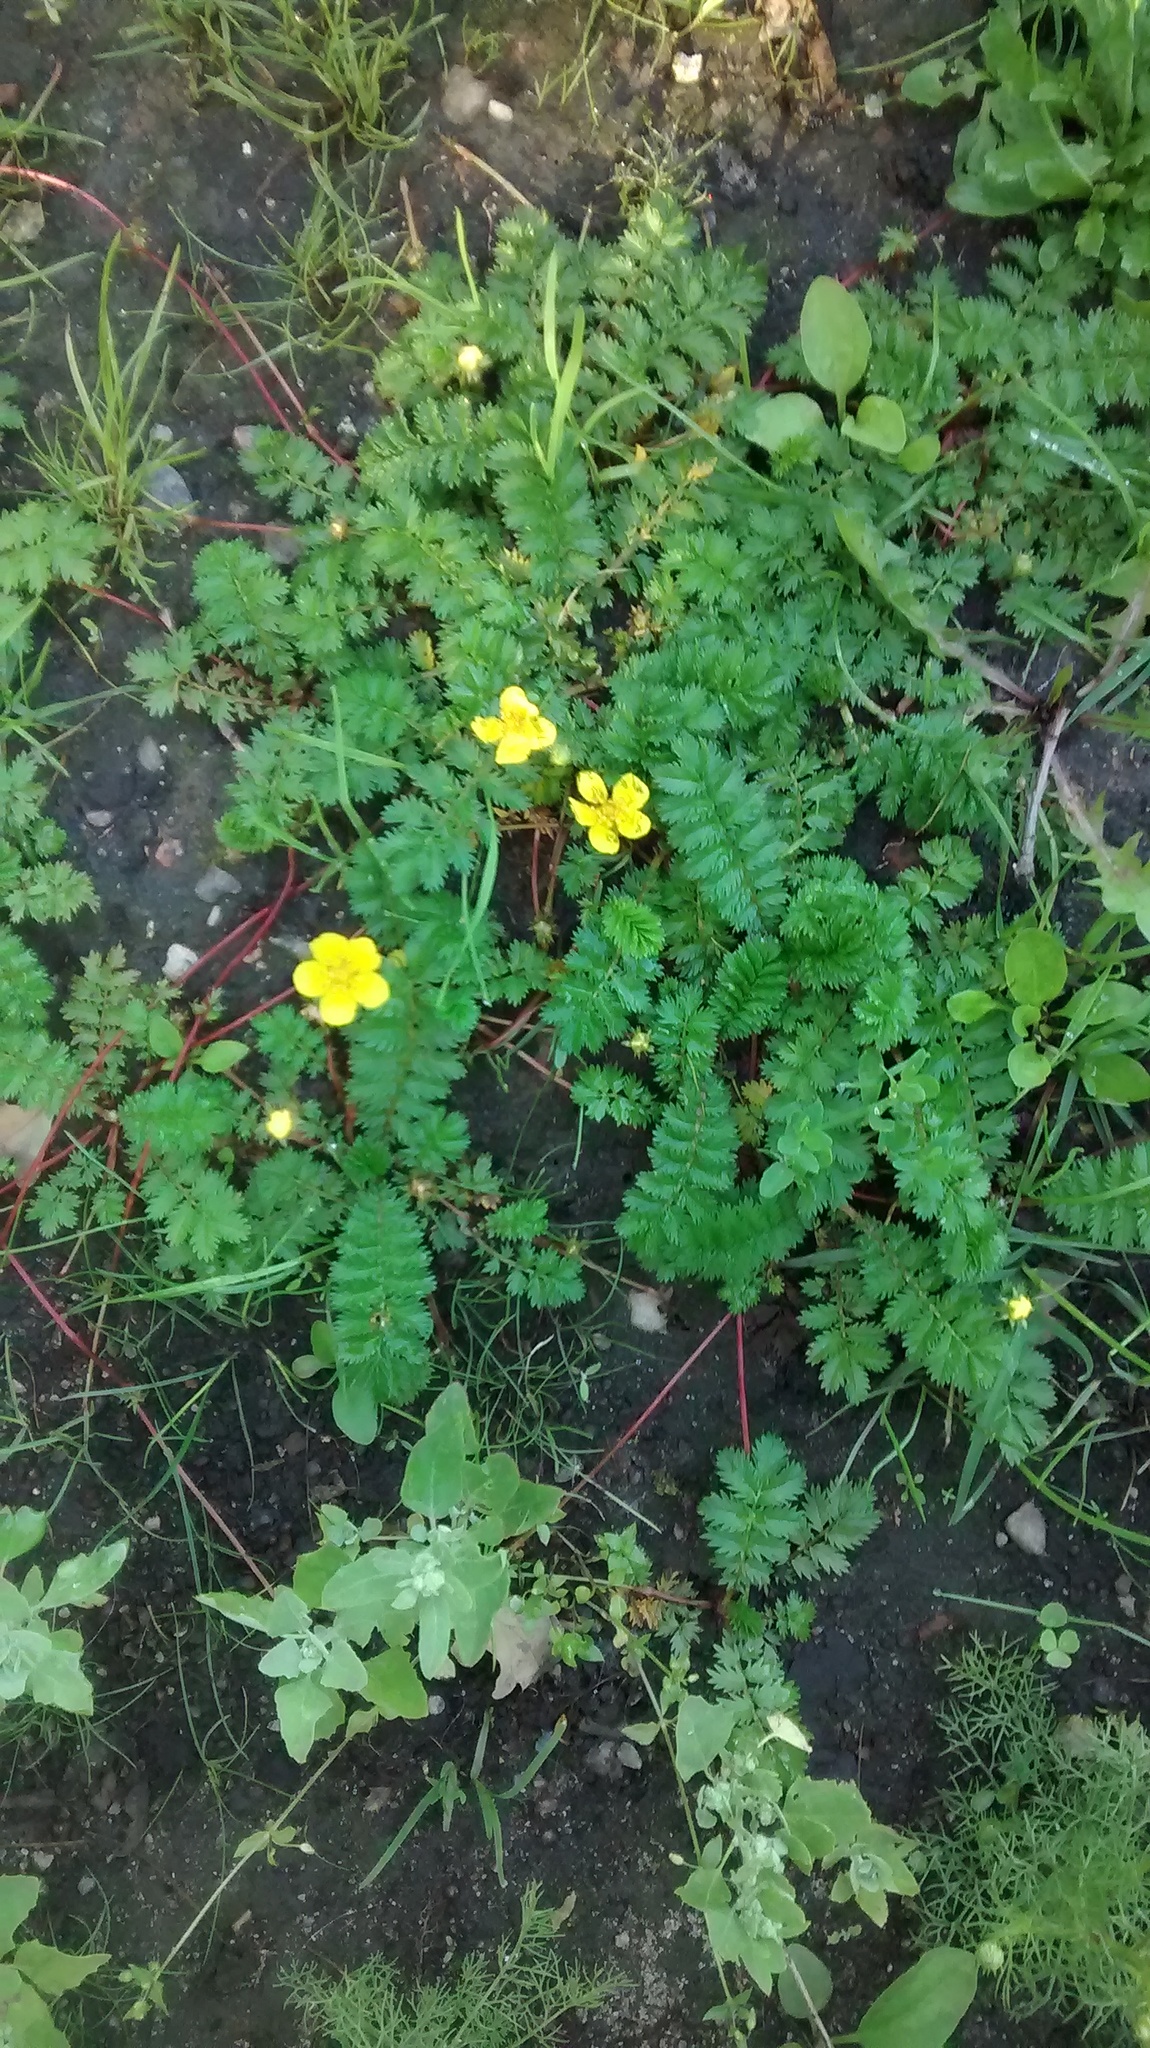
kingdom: Plantae
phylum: Tracheophyta
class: Magnoliopsida
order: Rosales
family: Rosaceae
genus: Argentina
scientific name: Argentina anserina
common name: Common silverweed
